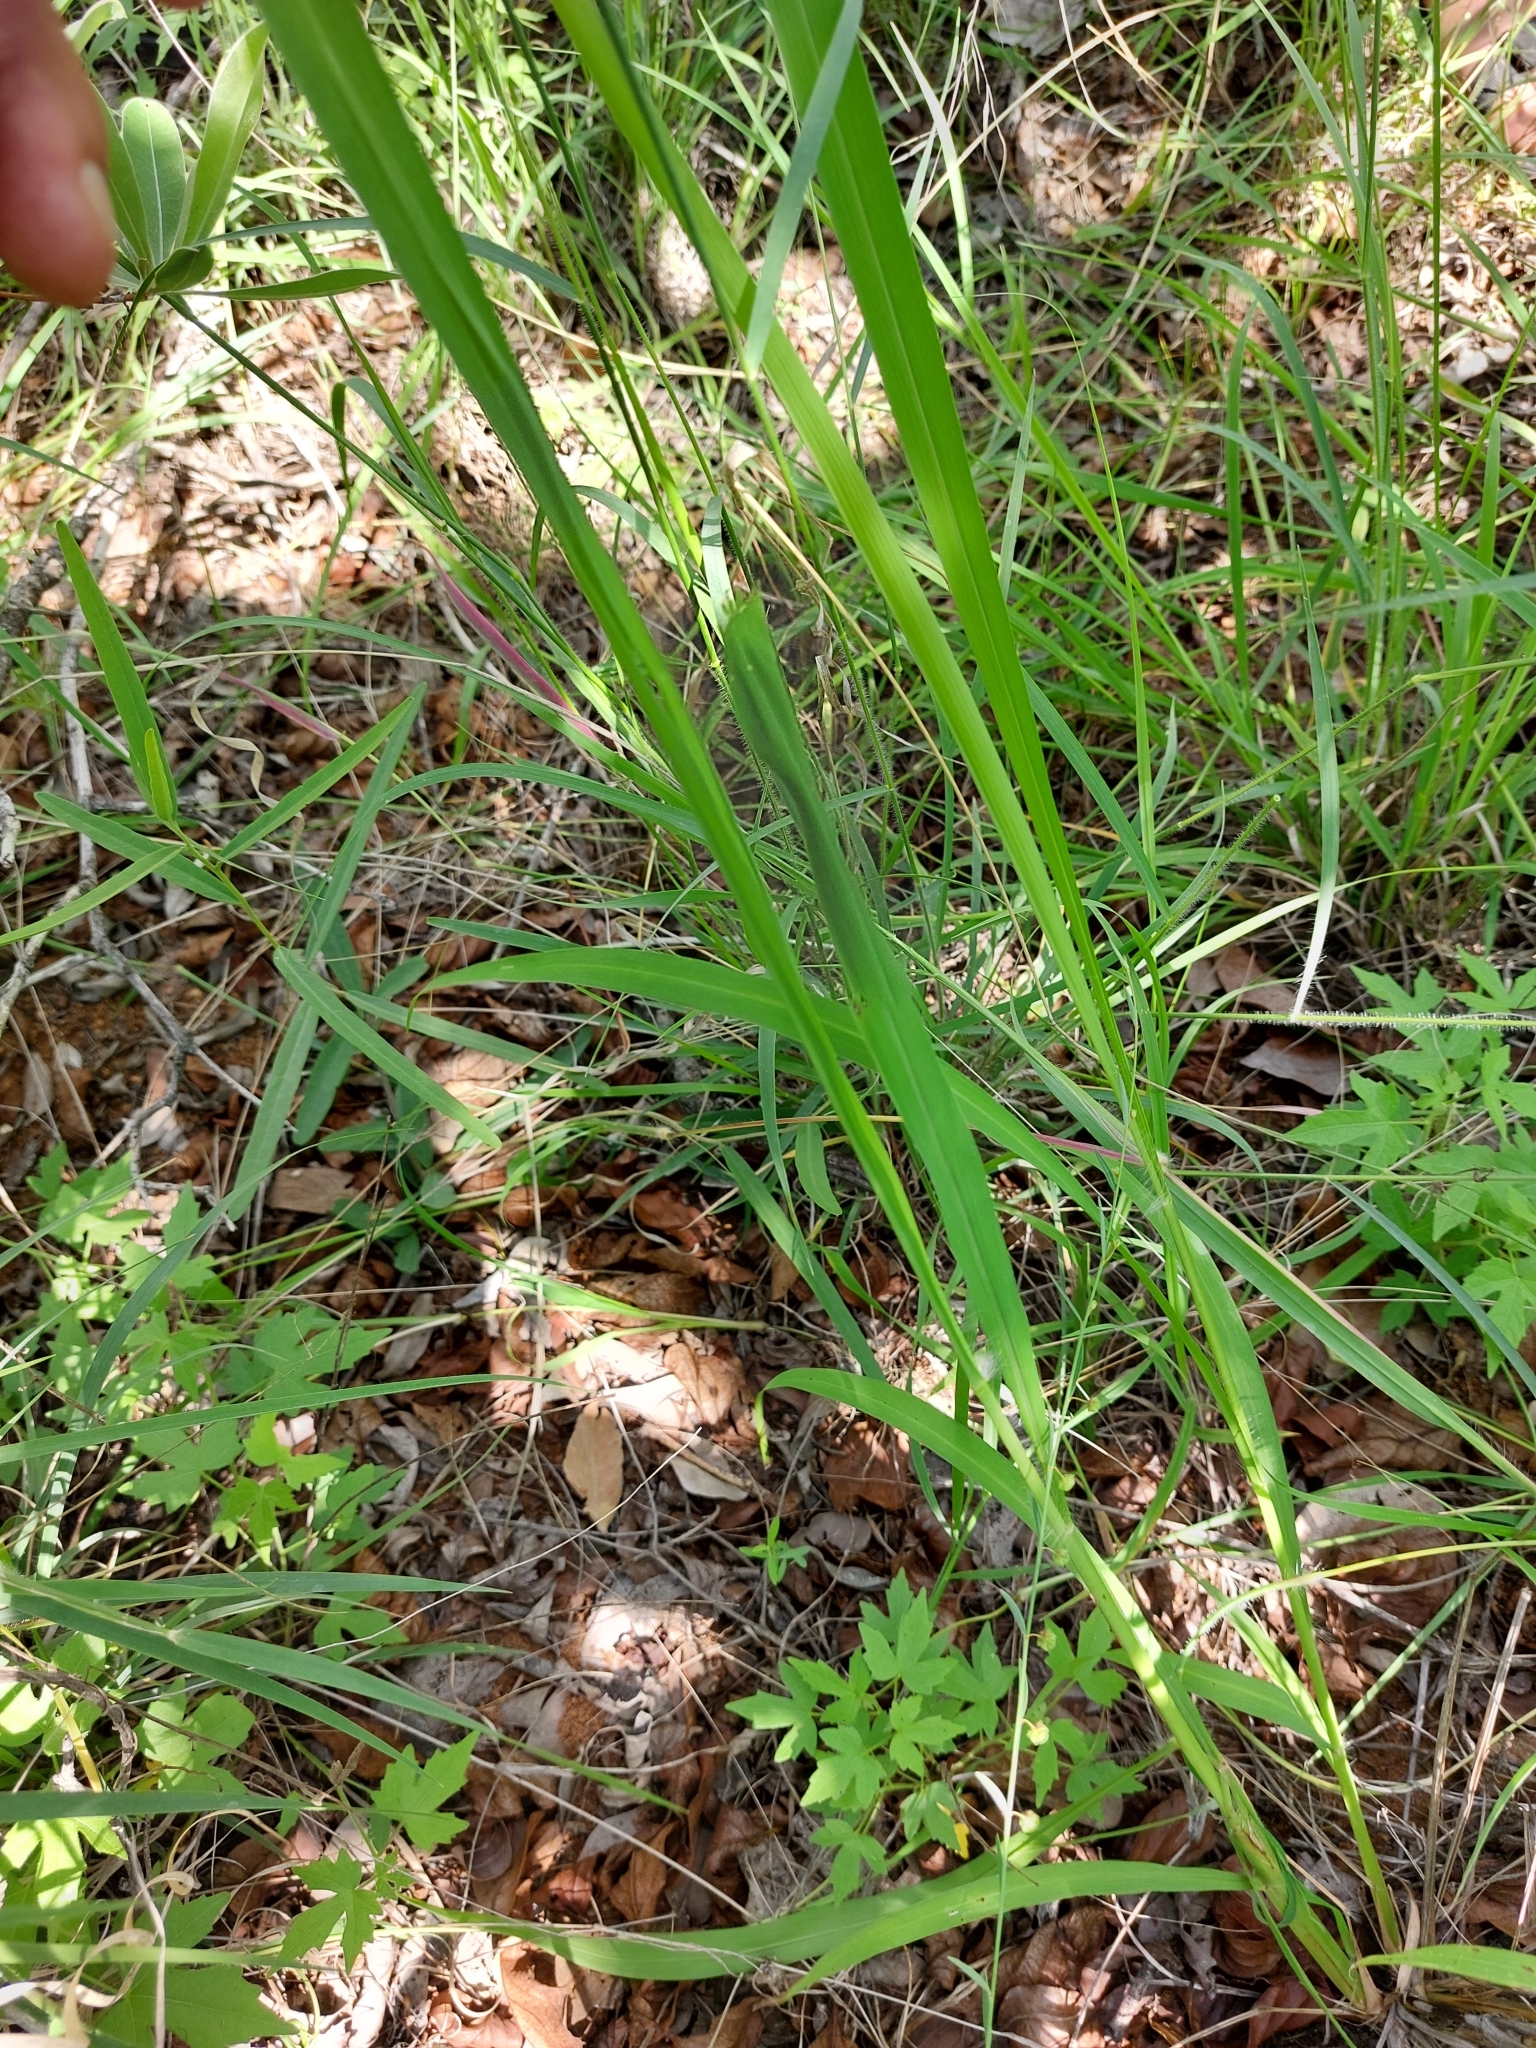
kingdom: Plantae
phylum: Tracheophyta
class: Liliopsida
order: Poales
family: Poaceae
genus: Megathyrsus
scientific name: Megathyrsus maximus
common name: Guineagrass
